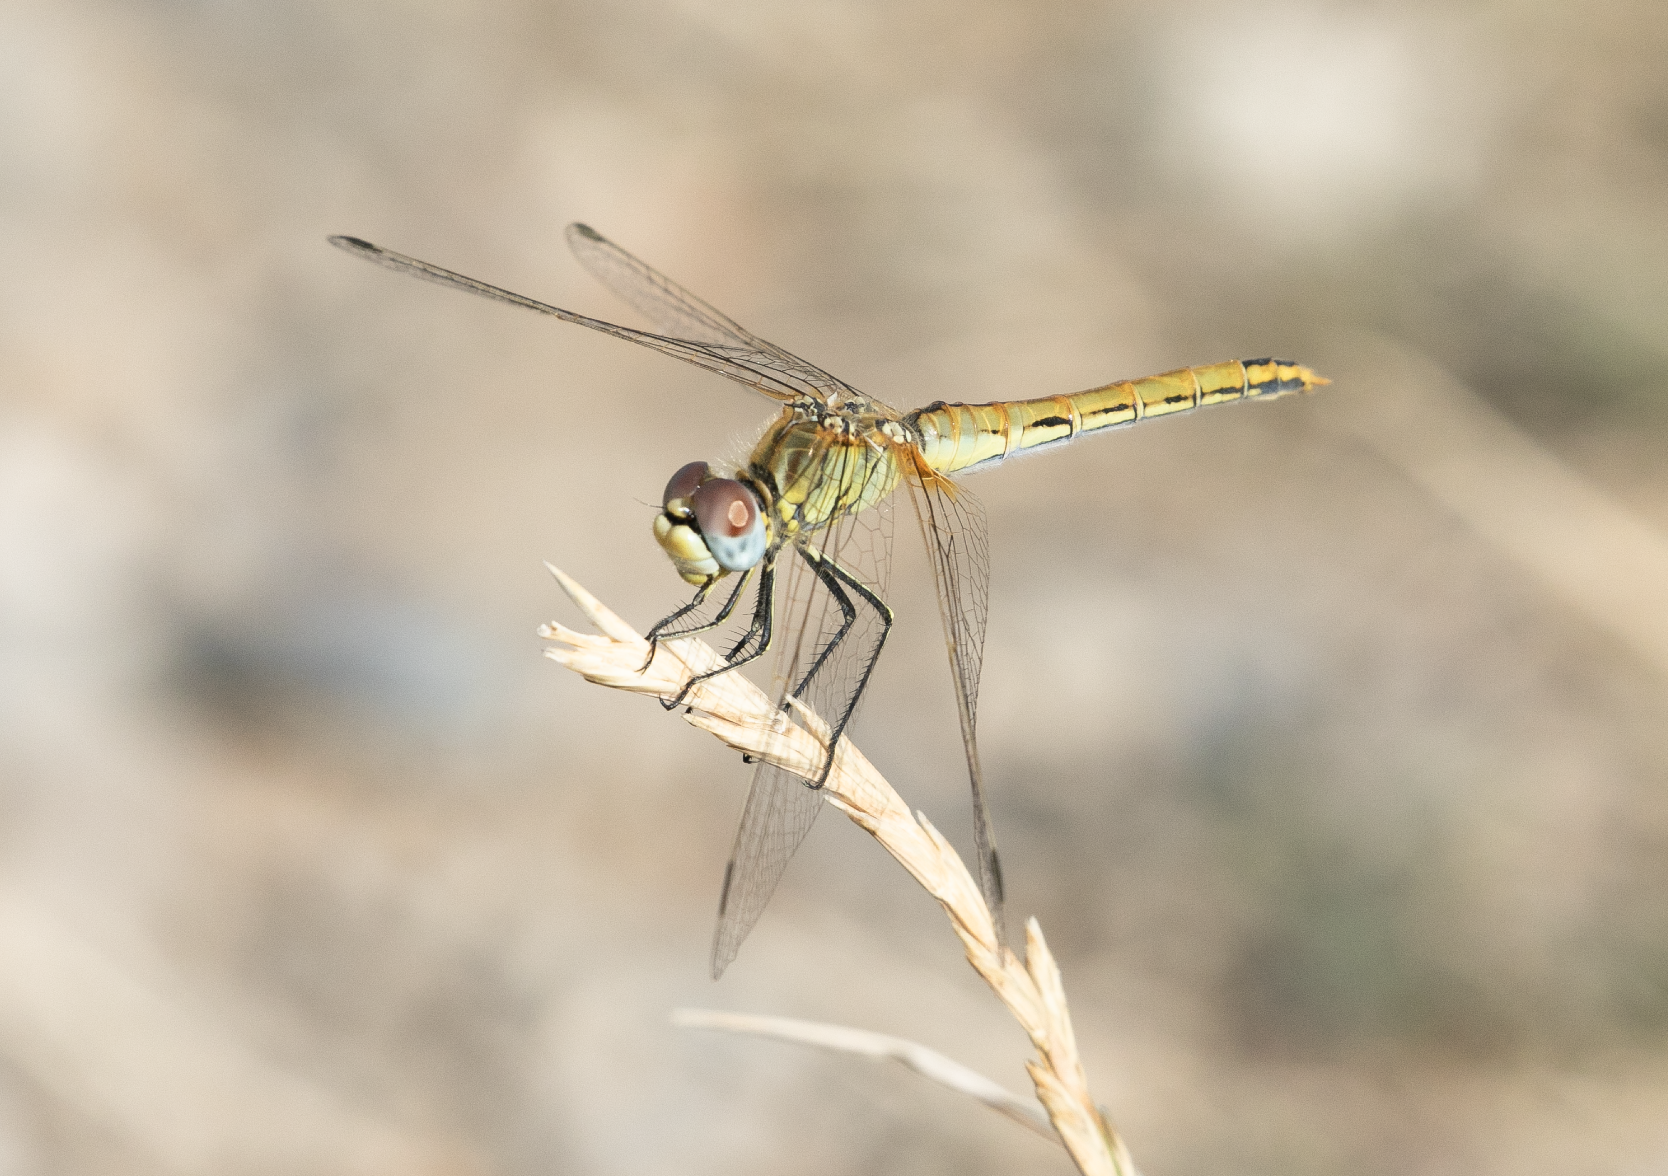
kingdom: Animalia
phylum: Arthropoda
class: Insecta
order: Odonata
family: Libellulidae
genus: Sympetrum
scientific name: Sympetrum fonscolombii
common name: Red-veined darter
